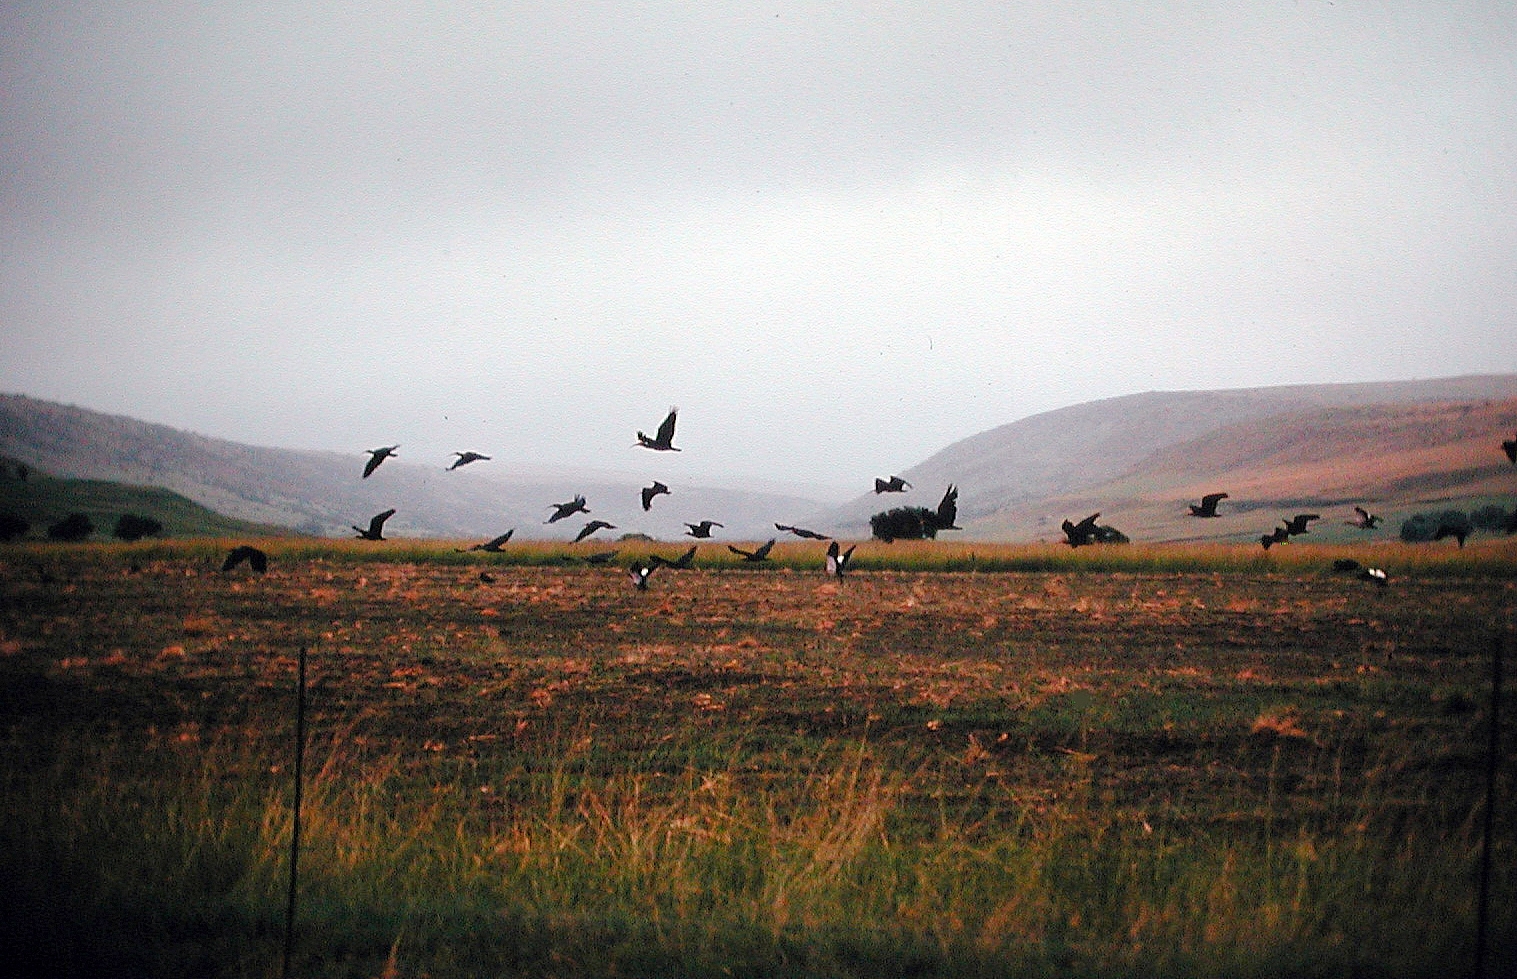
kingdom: Animalia
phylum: Chordata
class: Aves
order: Pelecaniformes
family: Threskiornithidae
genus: Geronticus
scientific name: Geronticus calvus
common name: Southern bald ibis
